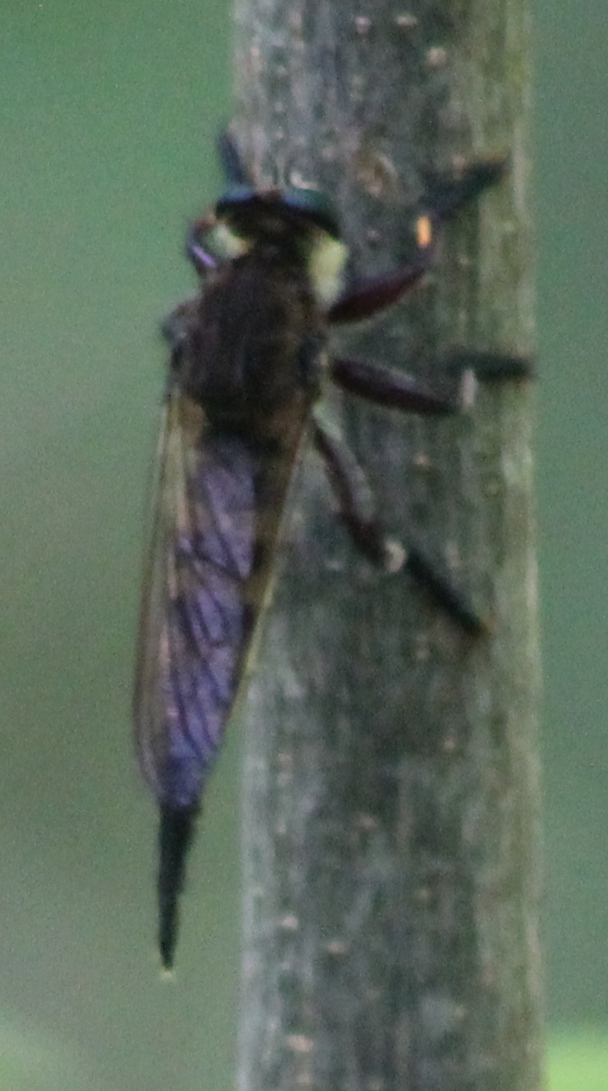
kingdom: Animalia
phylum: Arthropoda
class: Insecta
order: Diptera
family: Asilidae
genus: Promachus
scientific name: Promachus hinei
